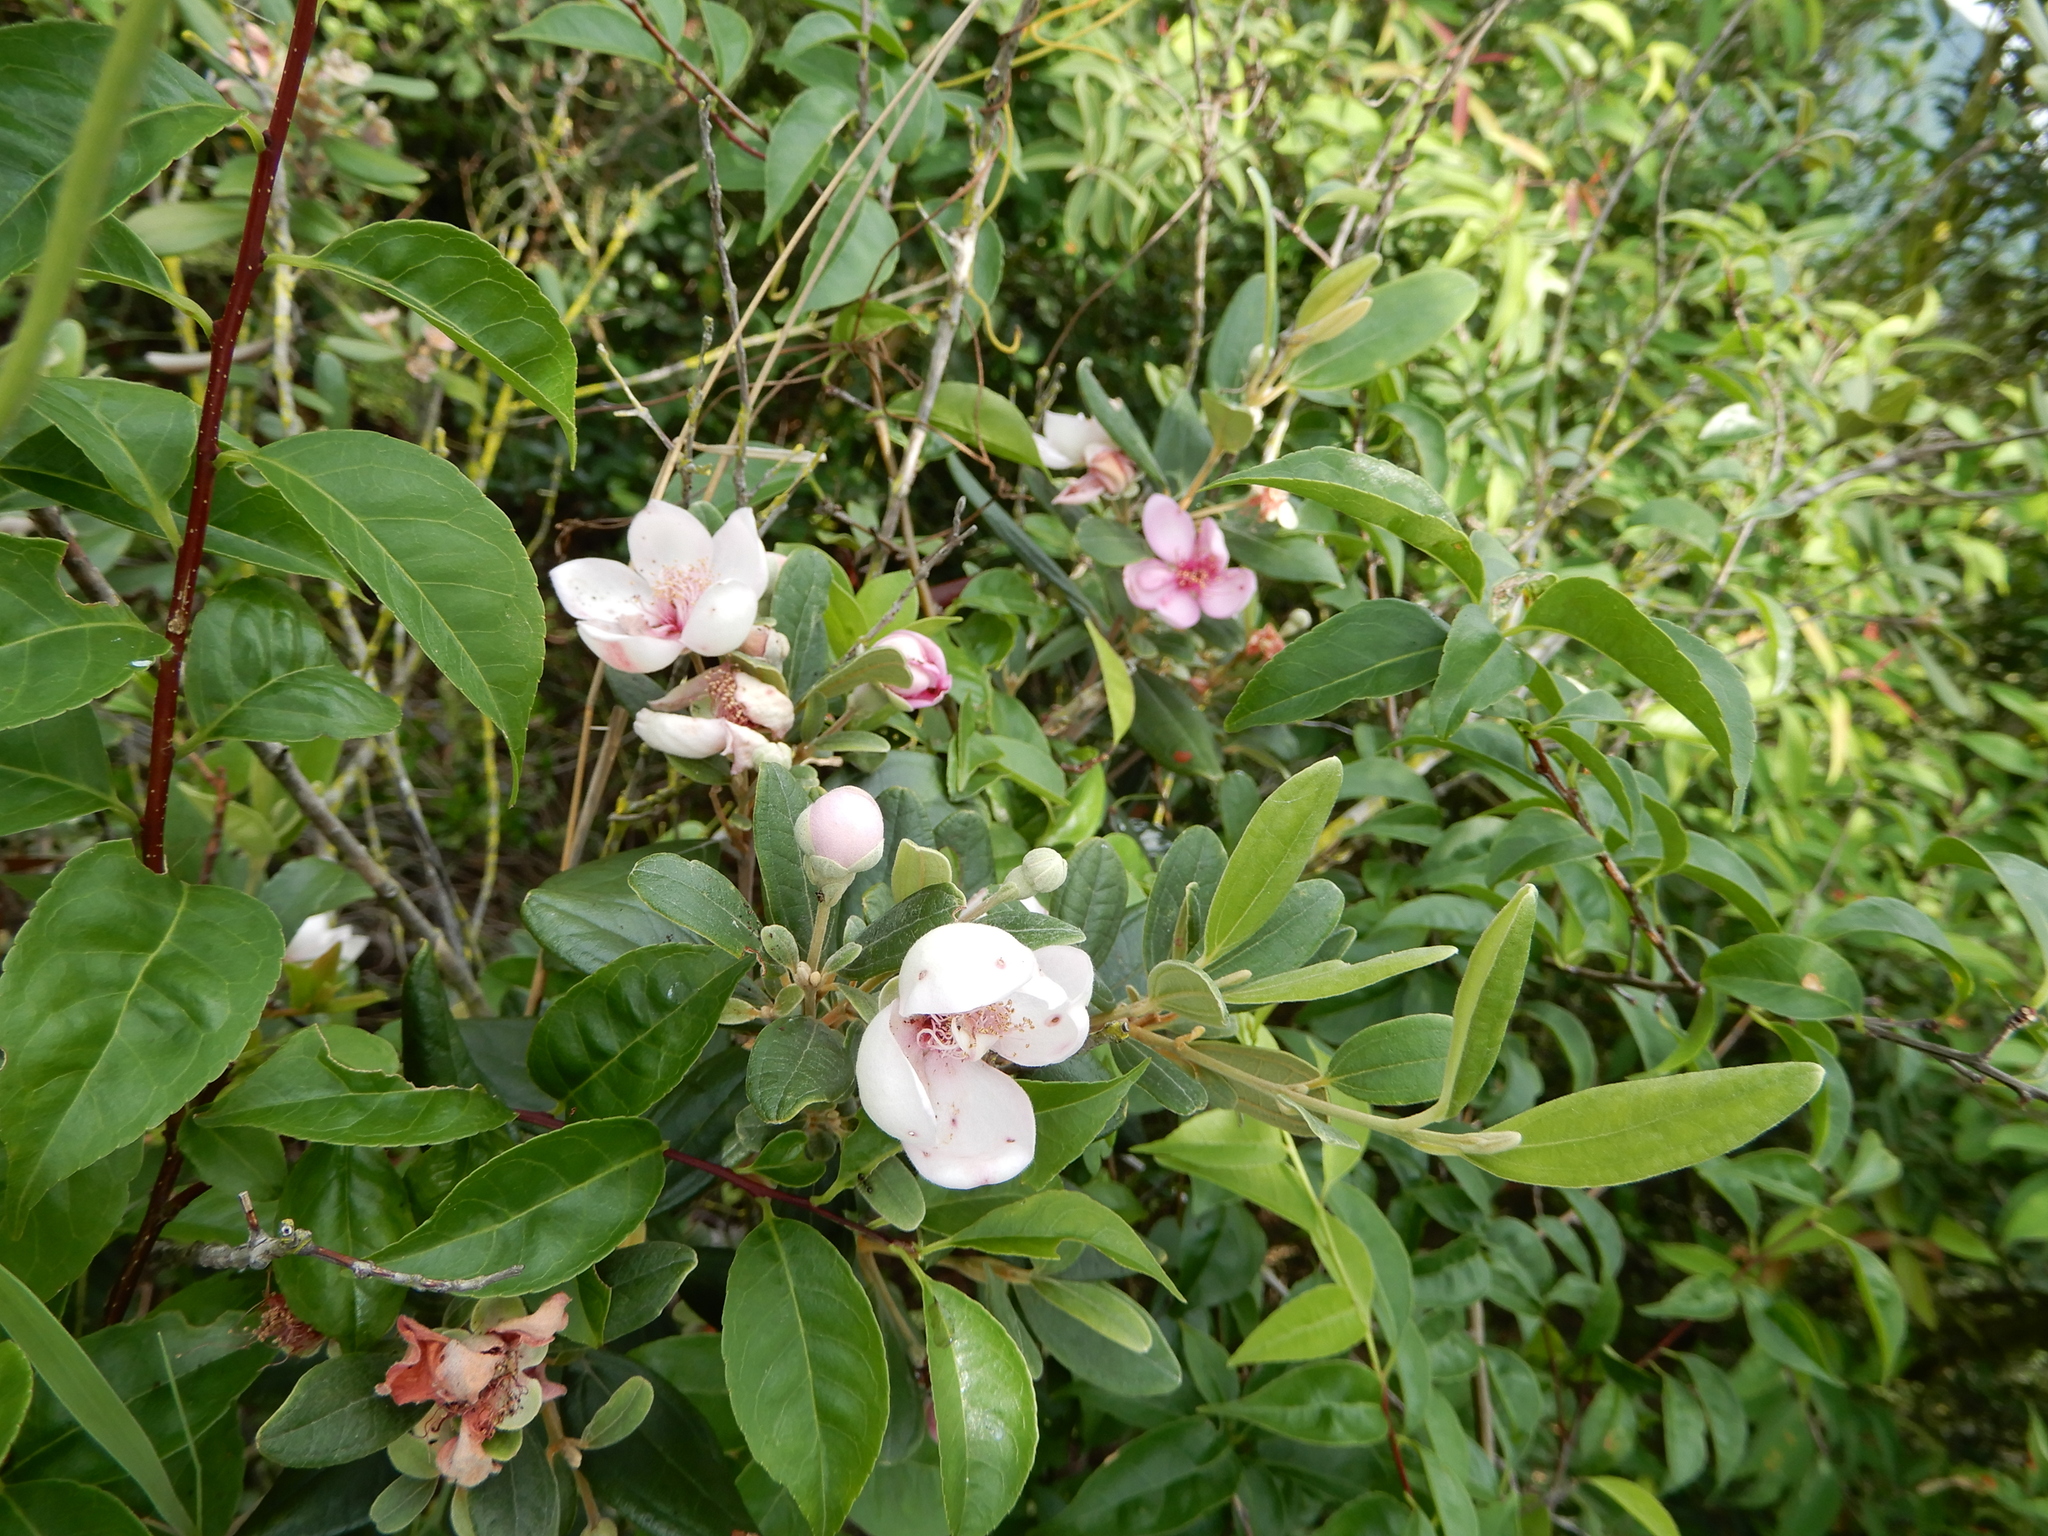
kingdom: Plantae
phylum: Tracheophyta
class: Magnoliopsida
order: Myrtales
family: Myrtaceae
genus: Rhodomyrtus
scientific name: Rhodomyrtus tomentosa
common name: Rose myrtle
